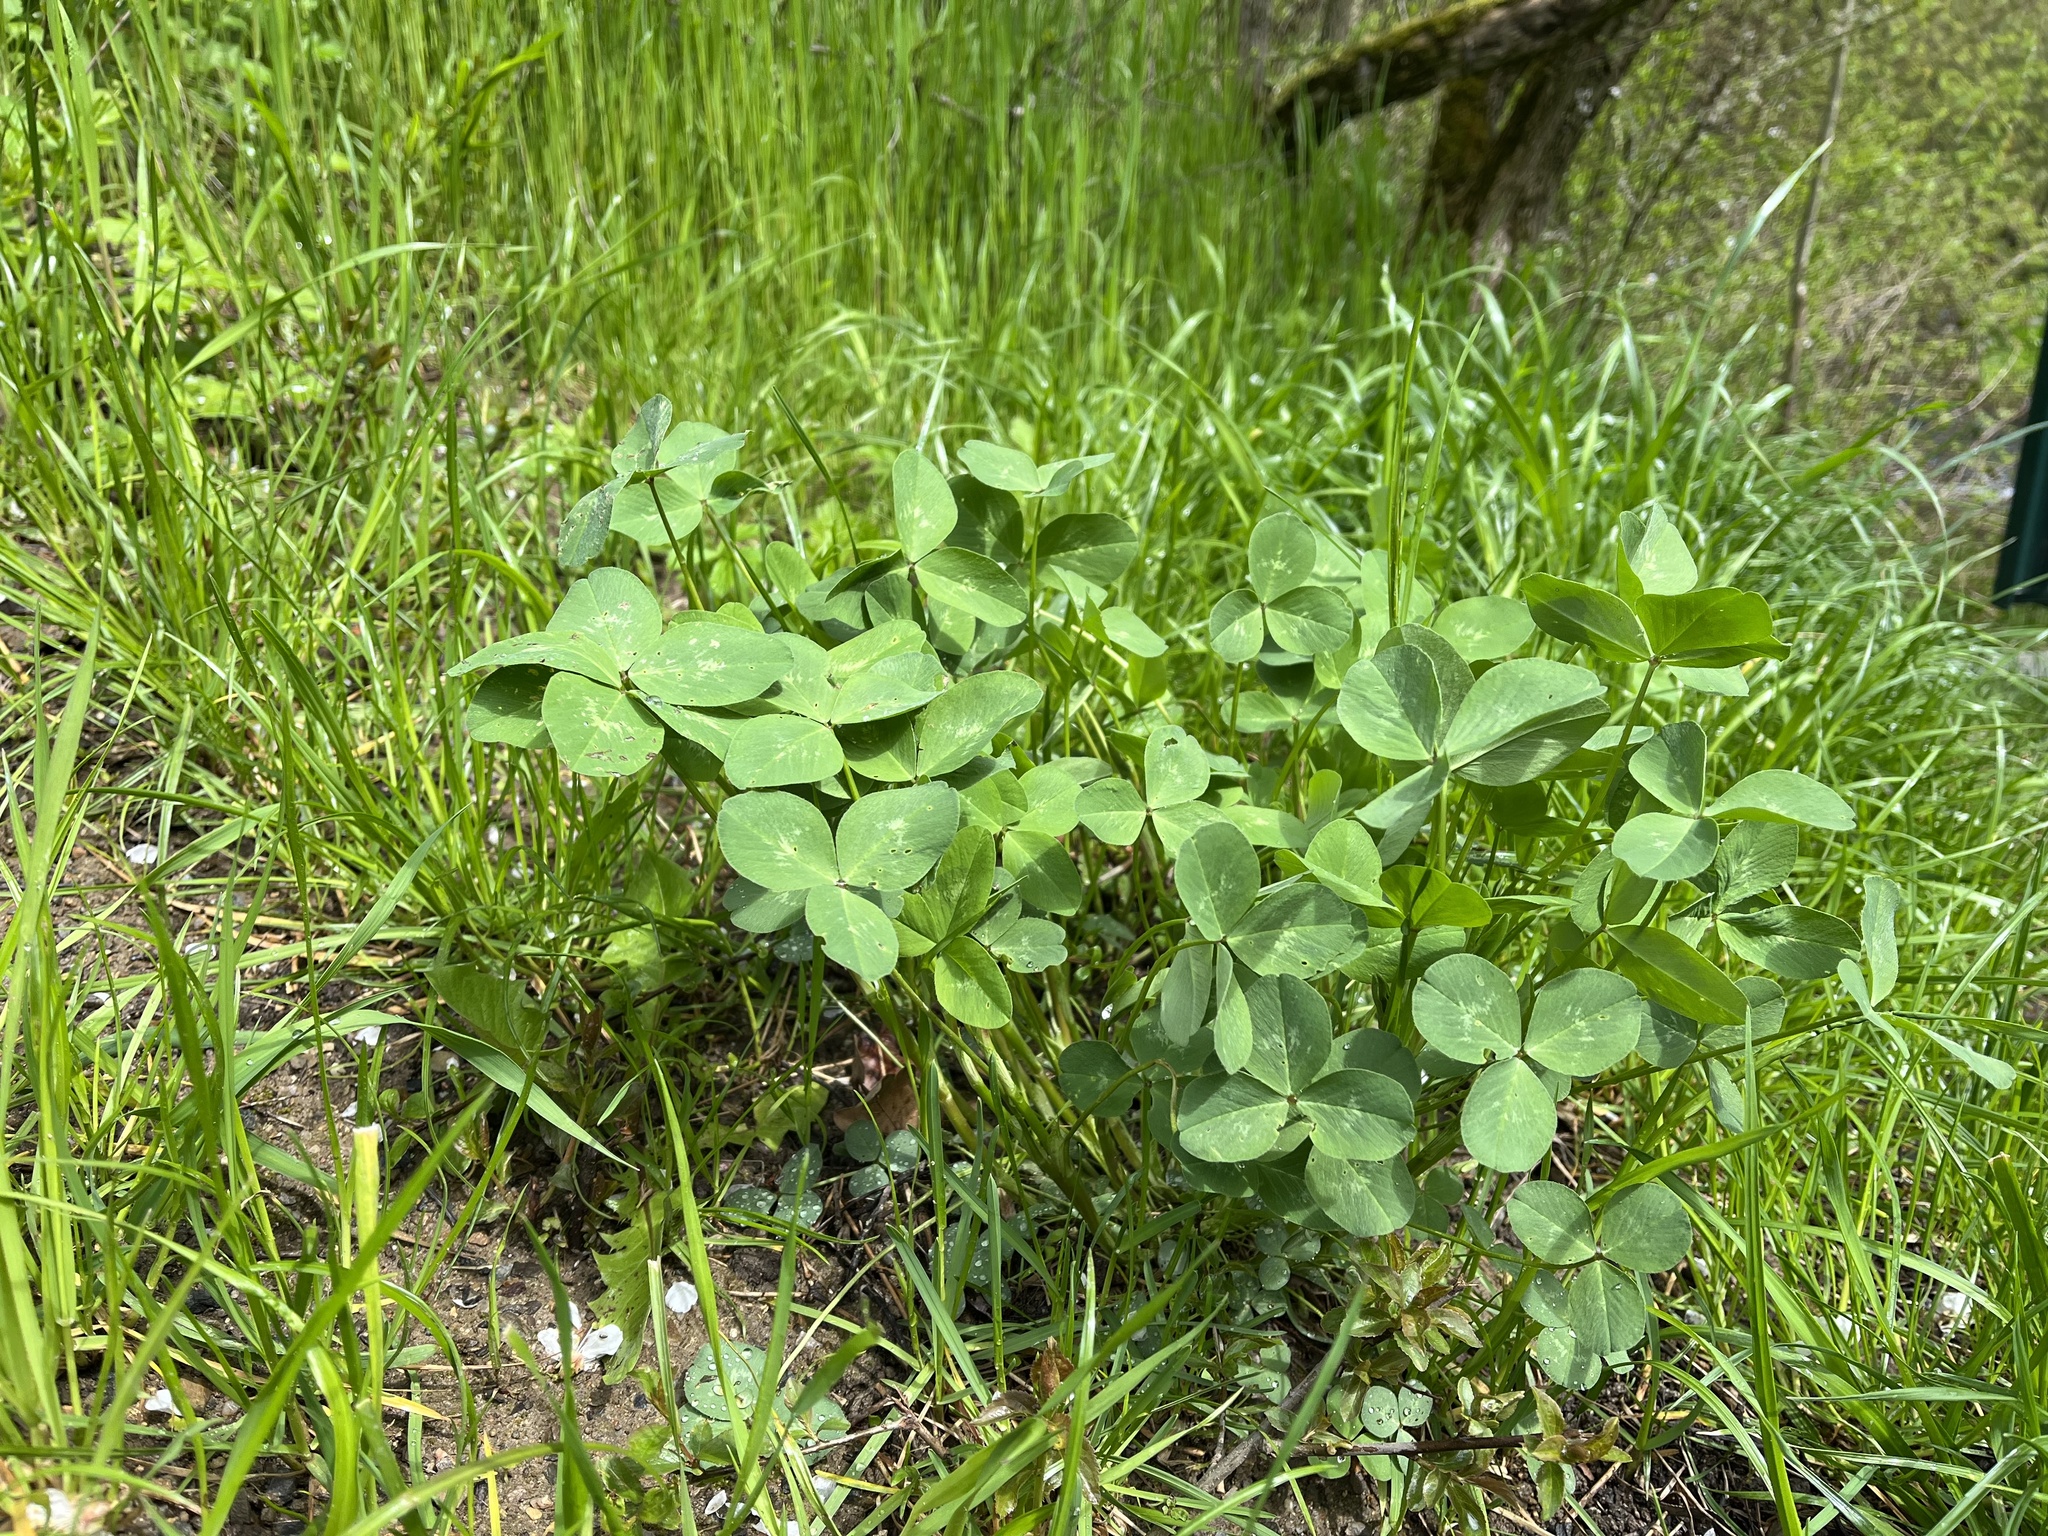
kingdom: Plantae
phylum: Tracheophyta
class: Magnoliopsida
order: Fabales
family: Fabaceae
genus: Trifolium
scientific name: Trifolium pratense
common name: Red clover
